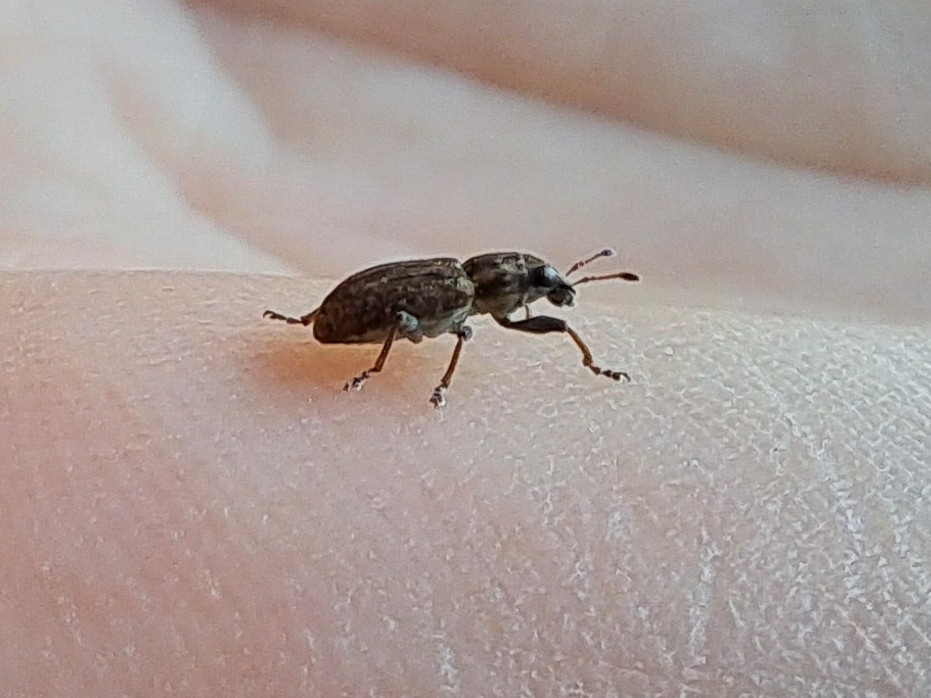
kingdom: Animalia
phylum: Arthropoda
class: Insecta
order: Coleoptera
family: Curculionidae
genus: Sitona
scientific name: Sitona obsoletus
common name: Weevil
